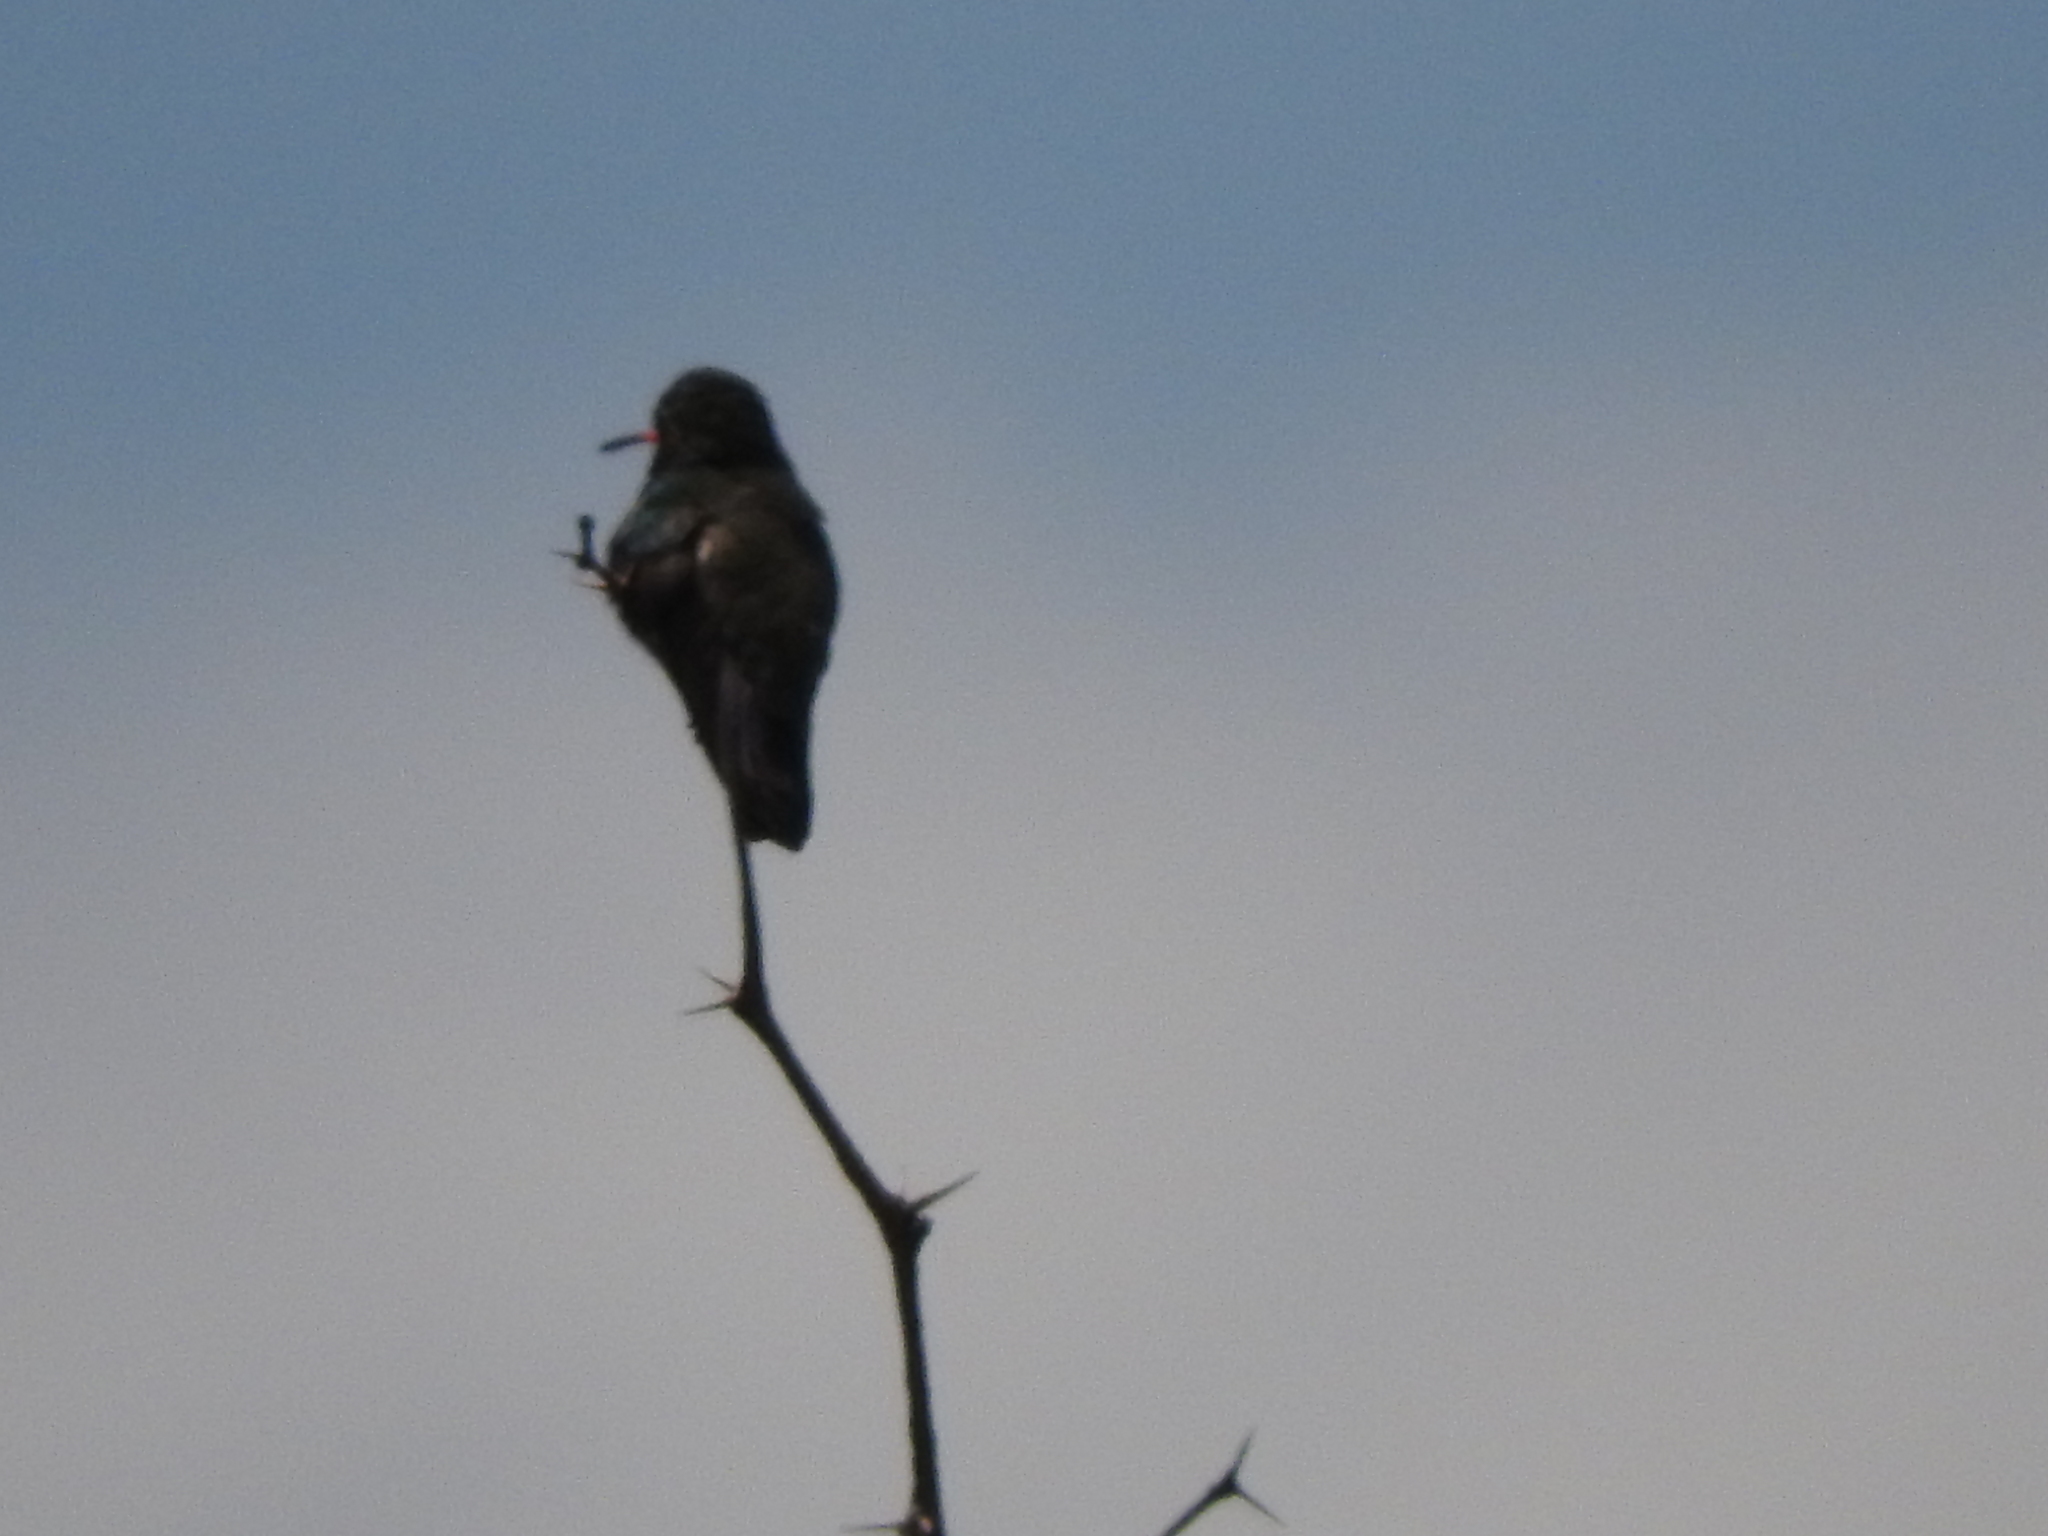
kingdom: Animalia
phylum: Chordata
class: Aves
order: Apodiformes
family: Trochilidae
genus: Cynanthus
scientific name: Cynanthus latirostris
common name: Broad-billed hummingbird
